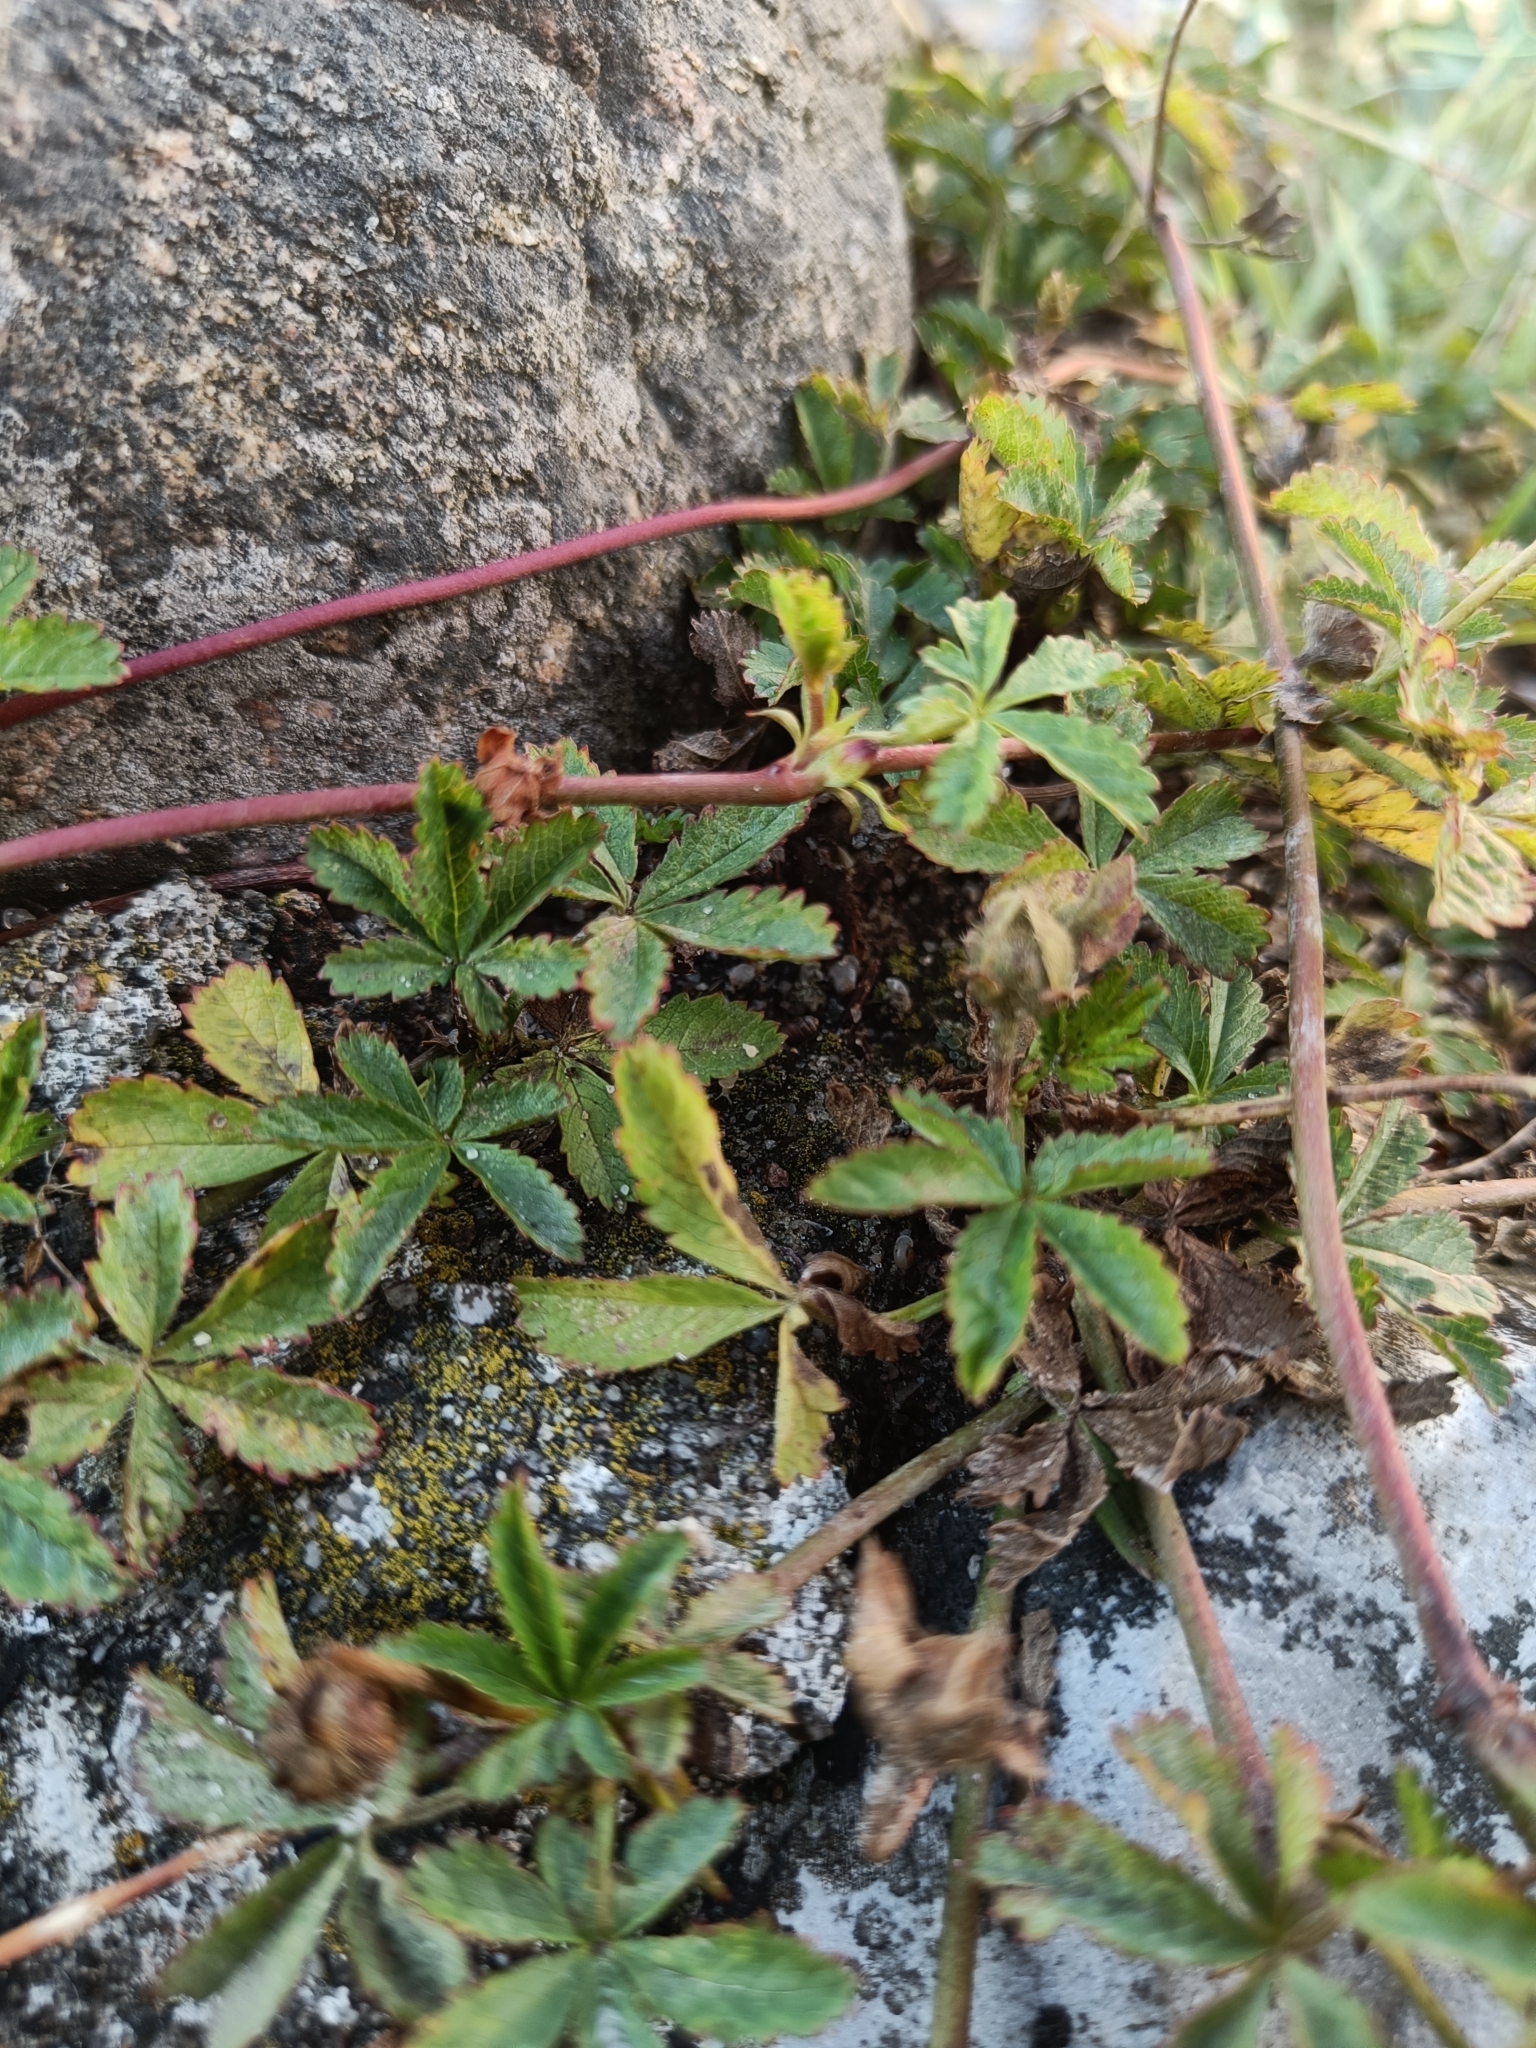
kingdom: Plantae
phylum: Tracheophyta
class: Magnoliopsida
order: Rosales
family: Rosaceae
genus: Potentilla
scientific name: Potentilla reptans
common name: Creeping cinquefoil
